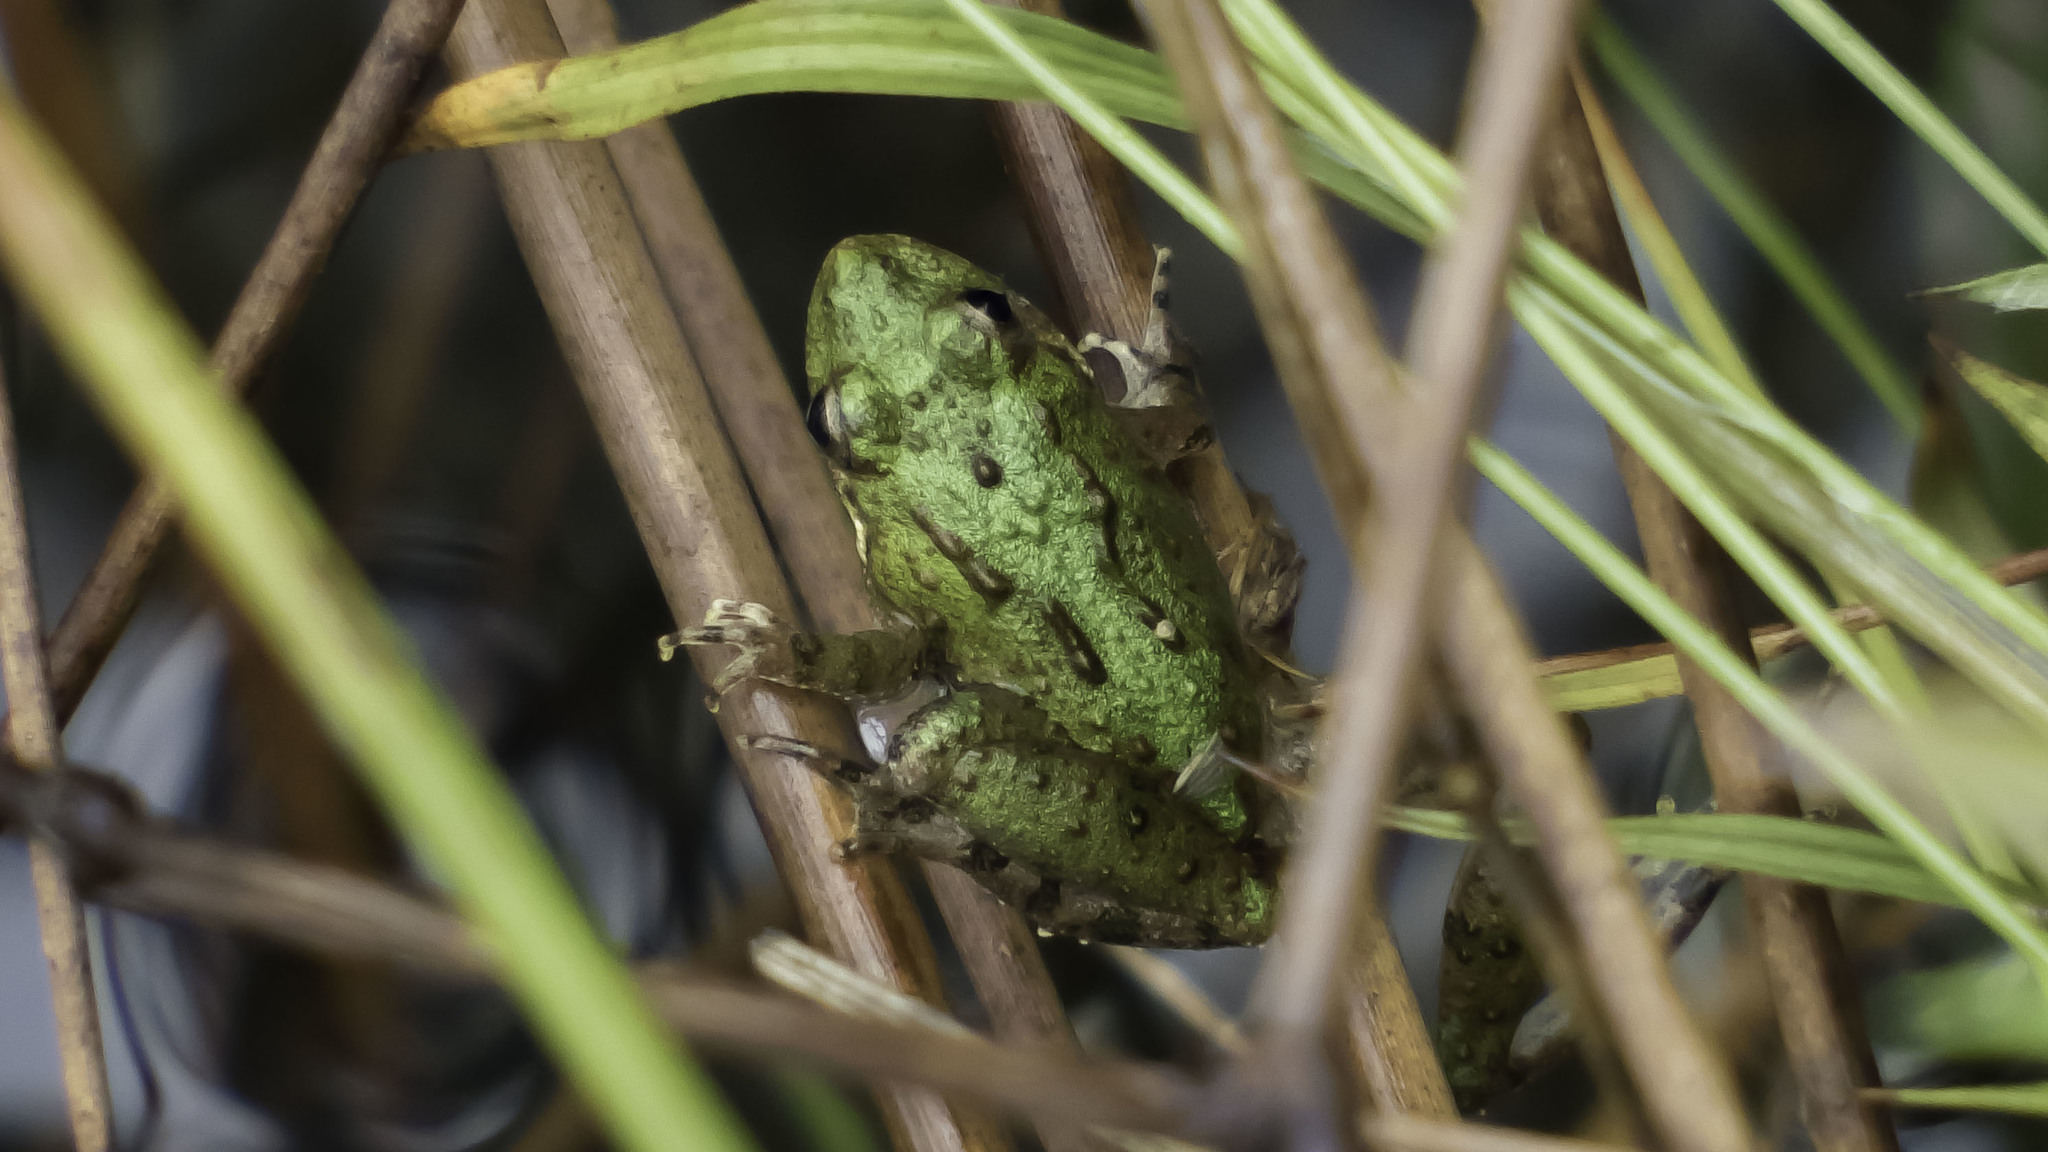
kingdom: Animalia
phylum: Chordata
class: Amphibia
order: Anura
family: Hylidae
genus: Acris
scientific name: Acris crepitans
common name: Northern cricket frog
